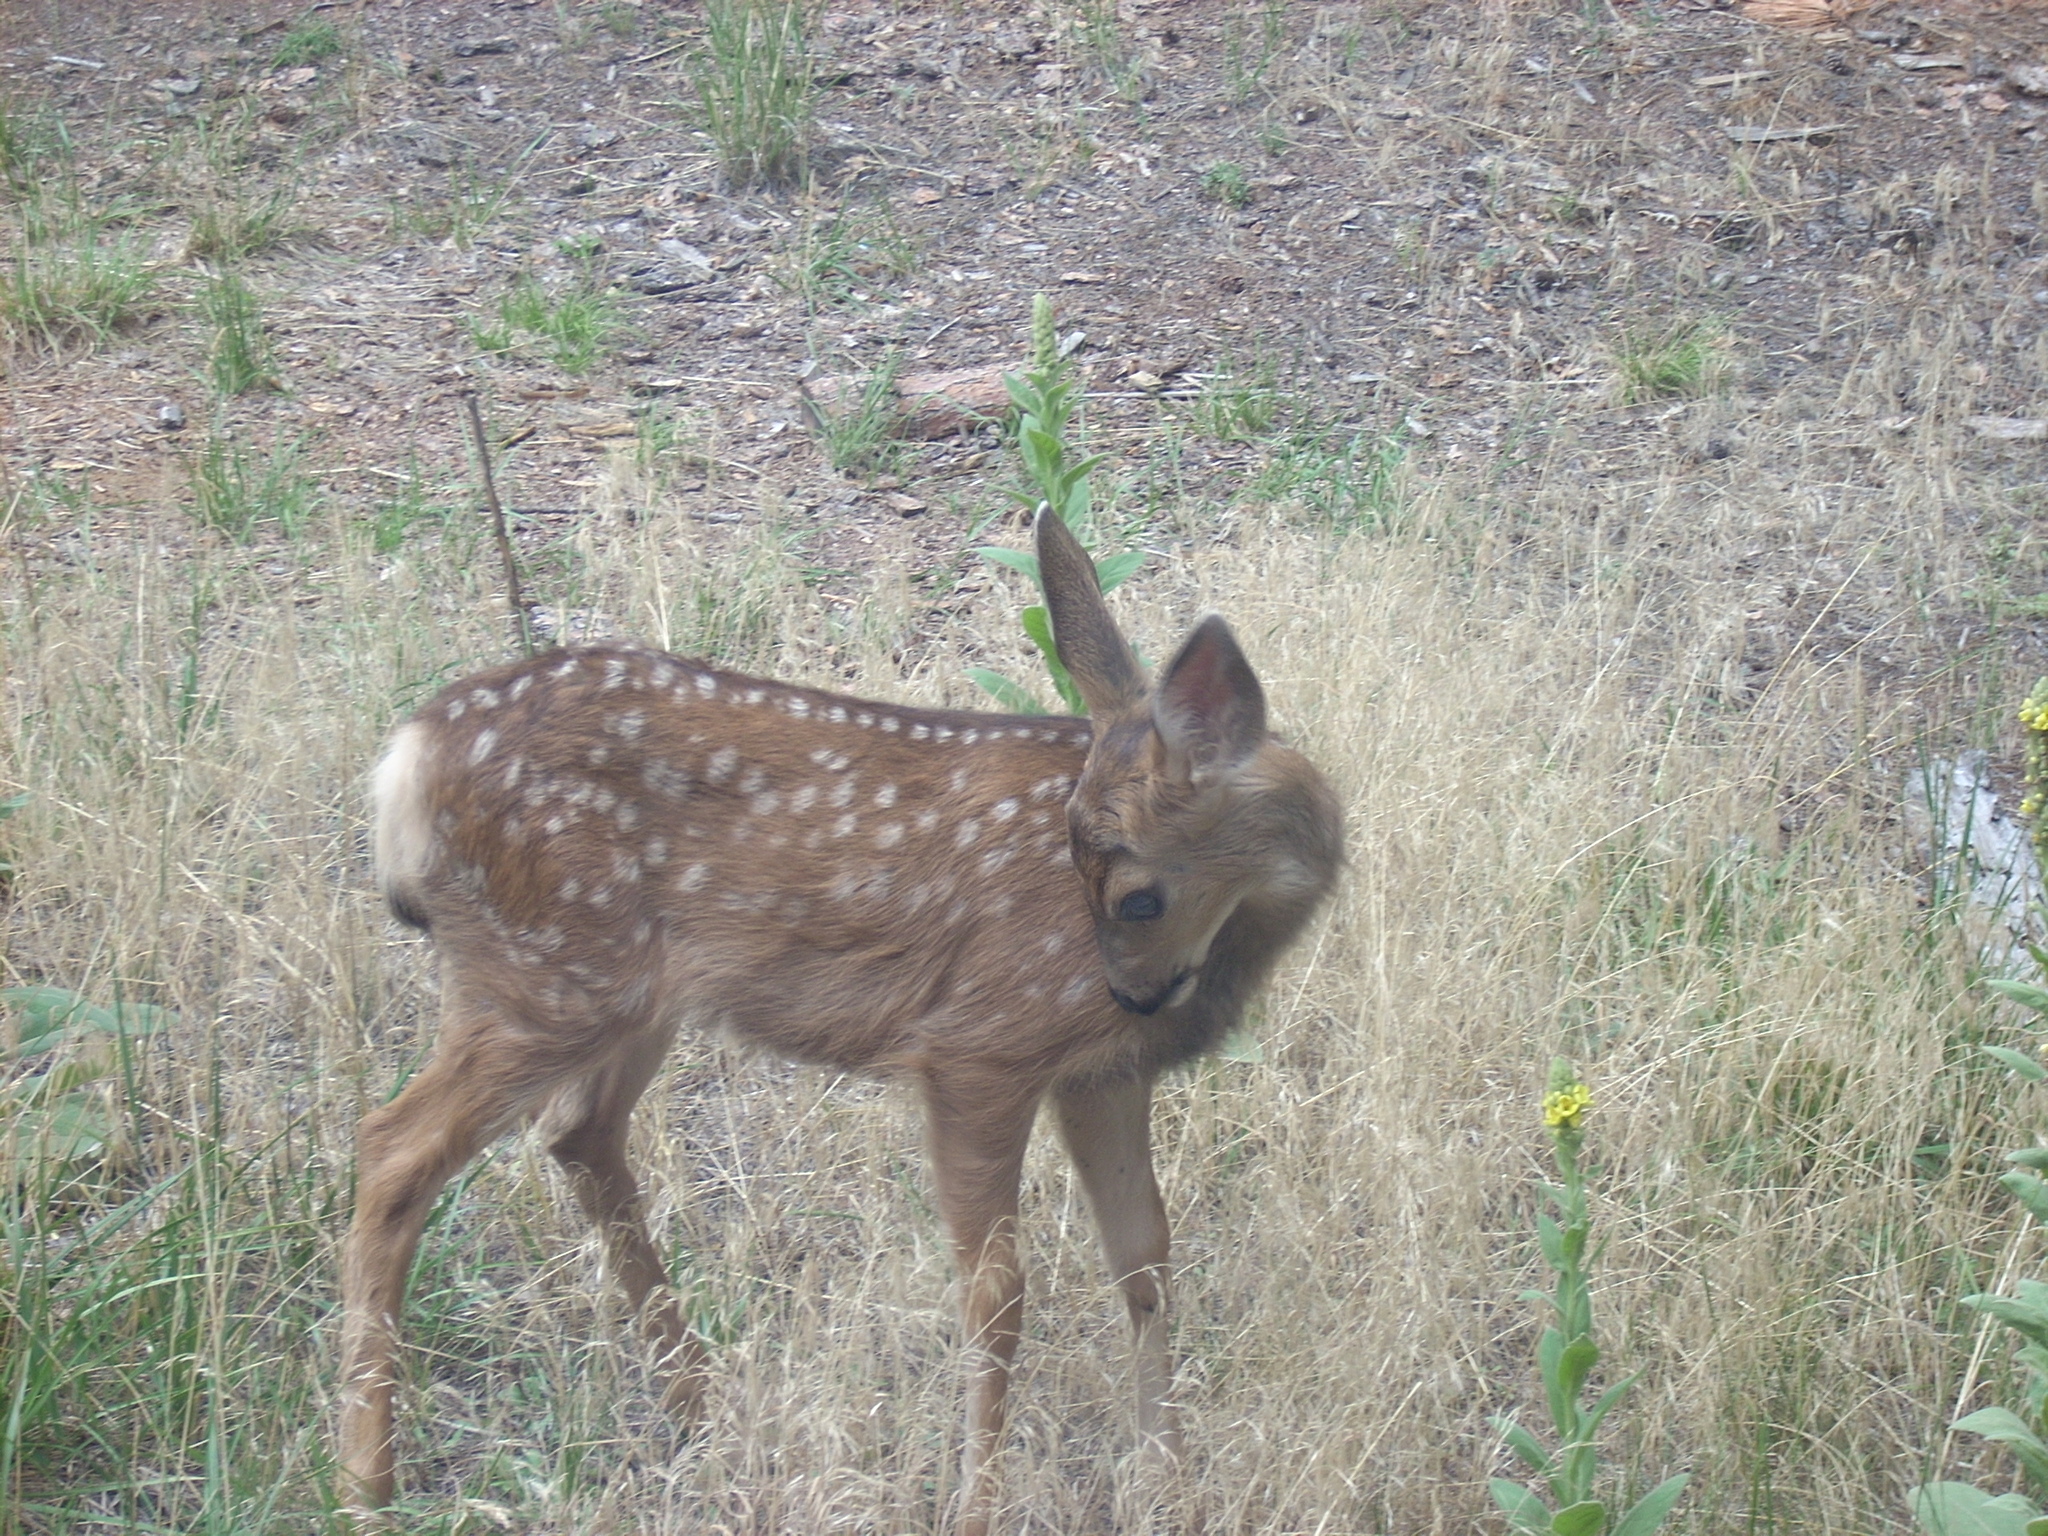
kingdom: Animalia
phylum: Chordata
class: Mammalia
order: Artiodactyla
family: Cervidae
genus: Odocoileus
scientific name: Odocoileus hemionus
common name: Mule deer
